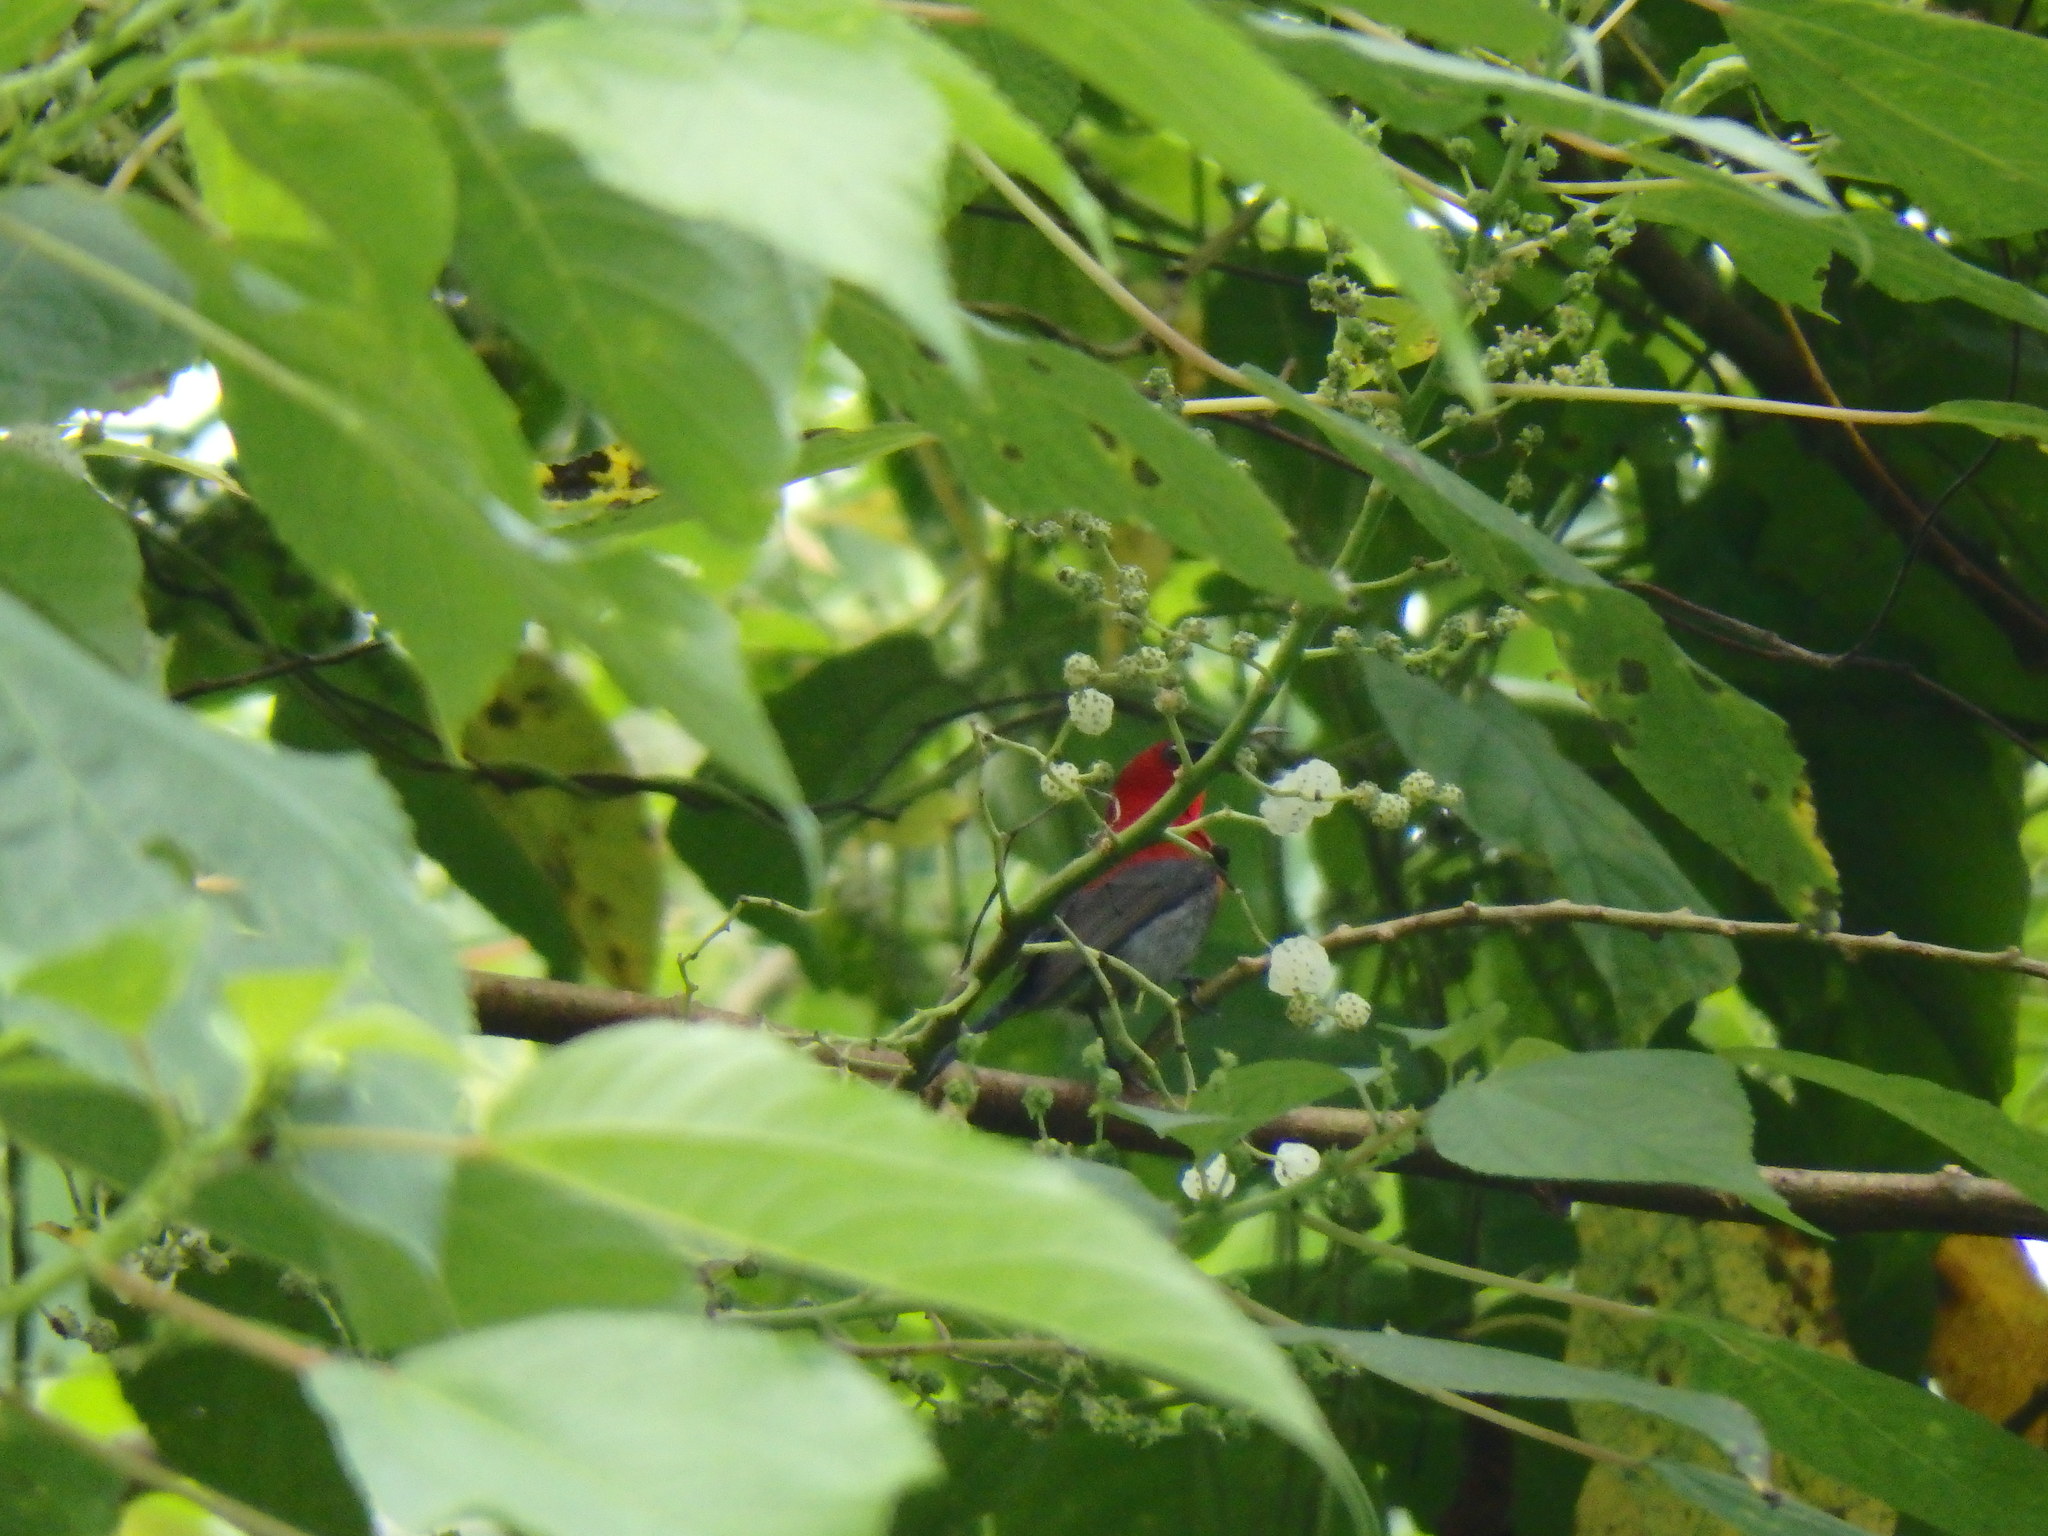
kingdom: Animalia
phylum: Chordata
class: Aves
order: Passeriformes
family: Nectariniidae
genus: Aethopyga
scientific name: Aethopyga siparaja
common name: Crimson sunbird
